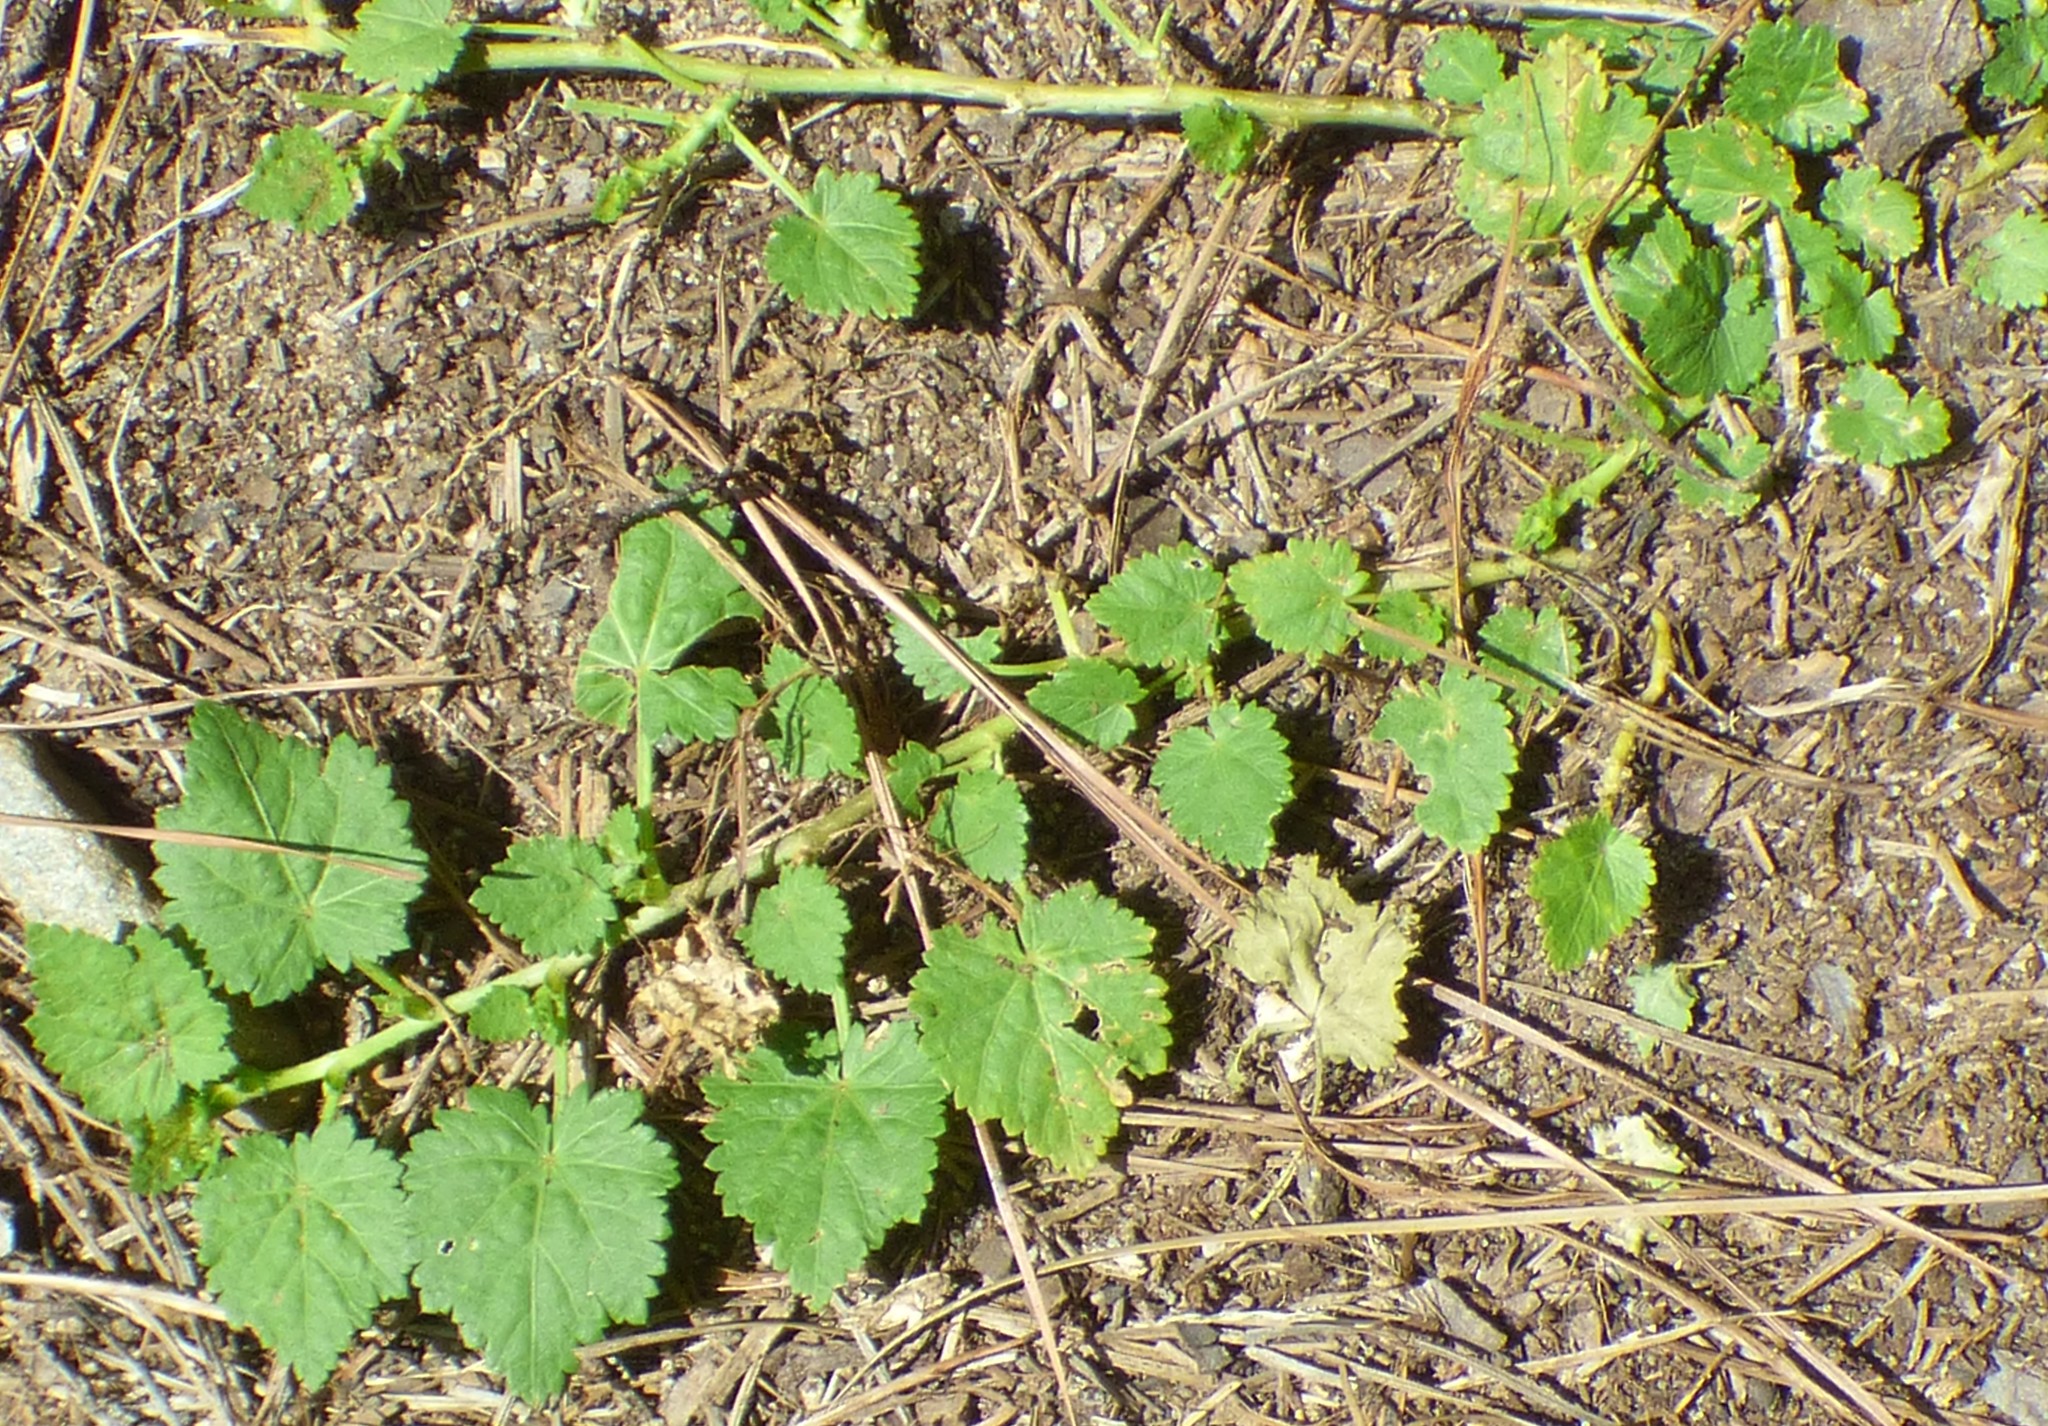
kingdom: Plantae
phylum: Tracheophyta
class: Magnoliopsida
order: Malvales
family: Malvaceae
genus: Modiola
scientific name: Modiola caroliniana
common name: Carolina bristlemallow
